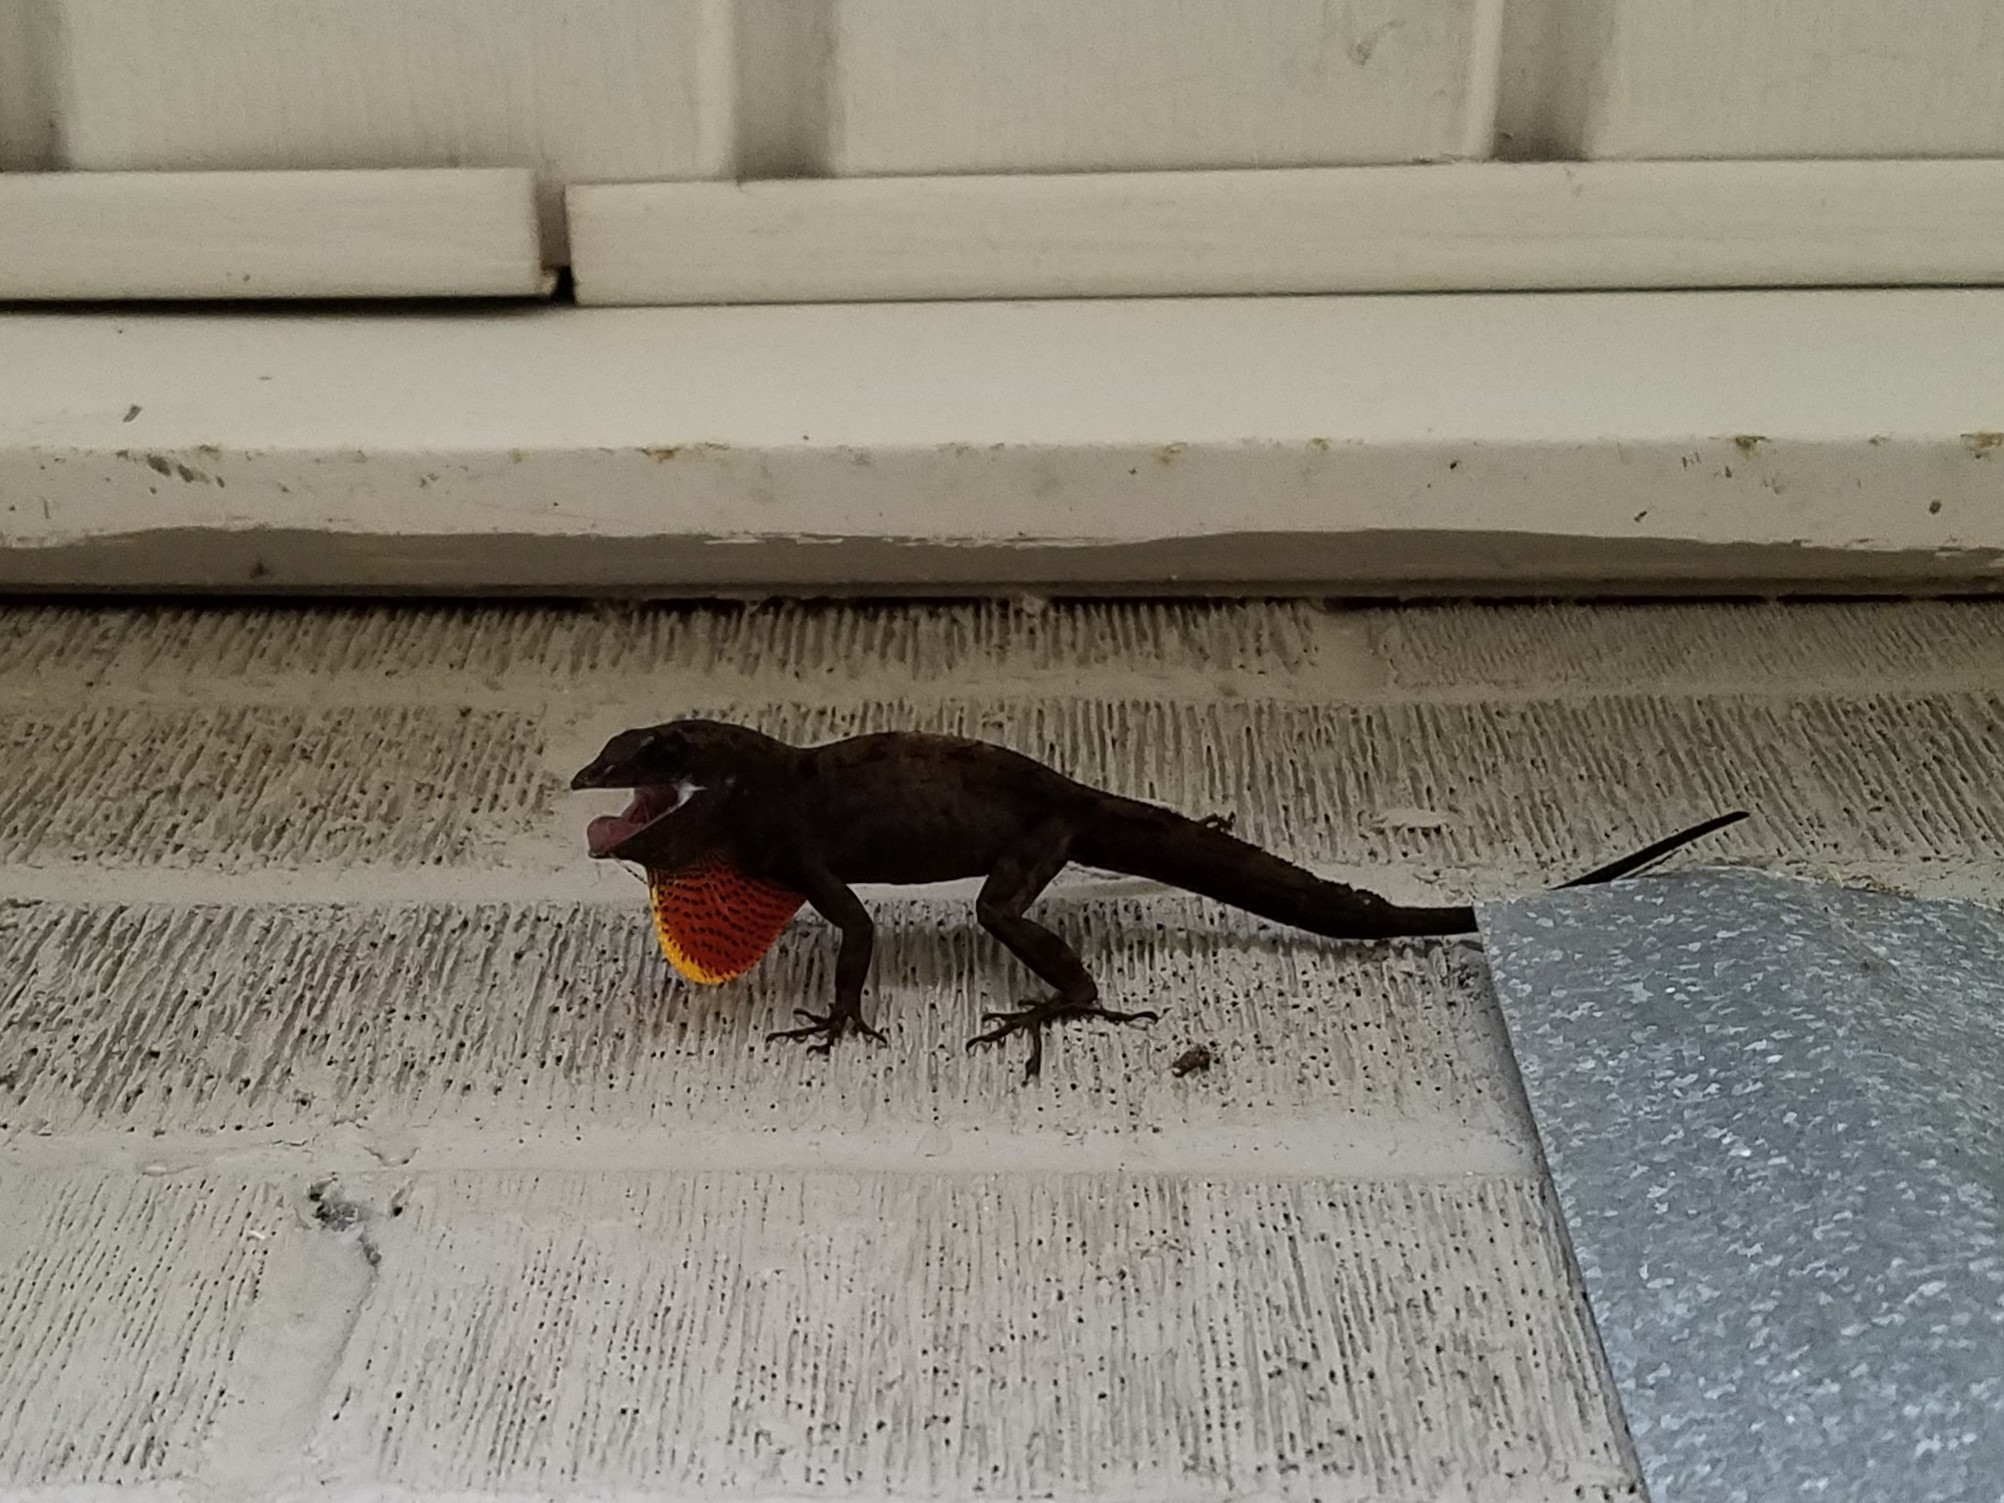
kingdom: Animalia
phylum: Chordata
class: Squamata
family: Dactyloidae
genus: Anolis
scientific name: Anolis sagrei
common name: Brown anole
